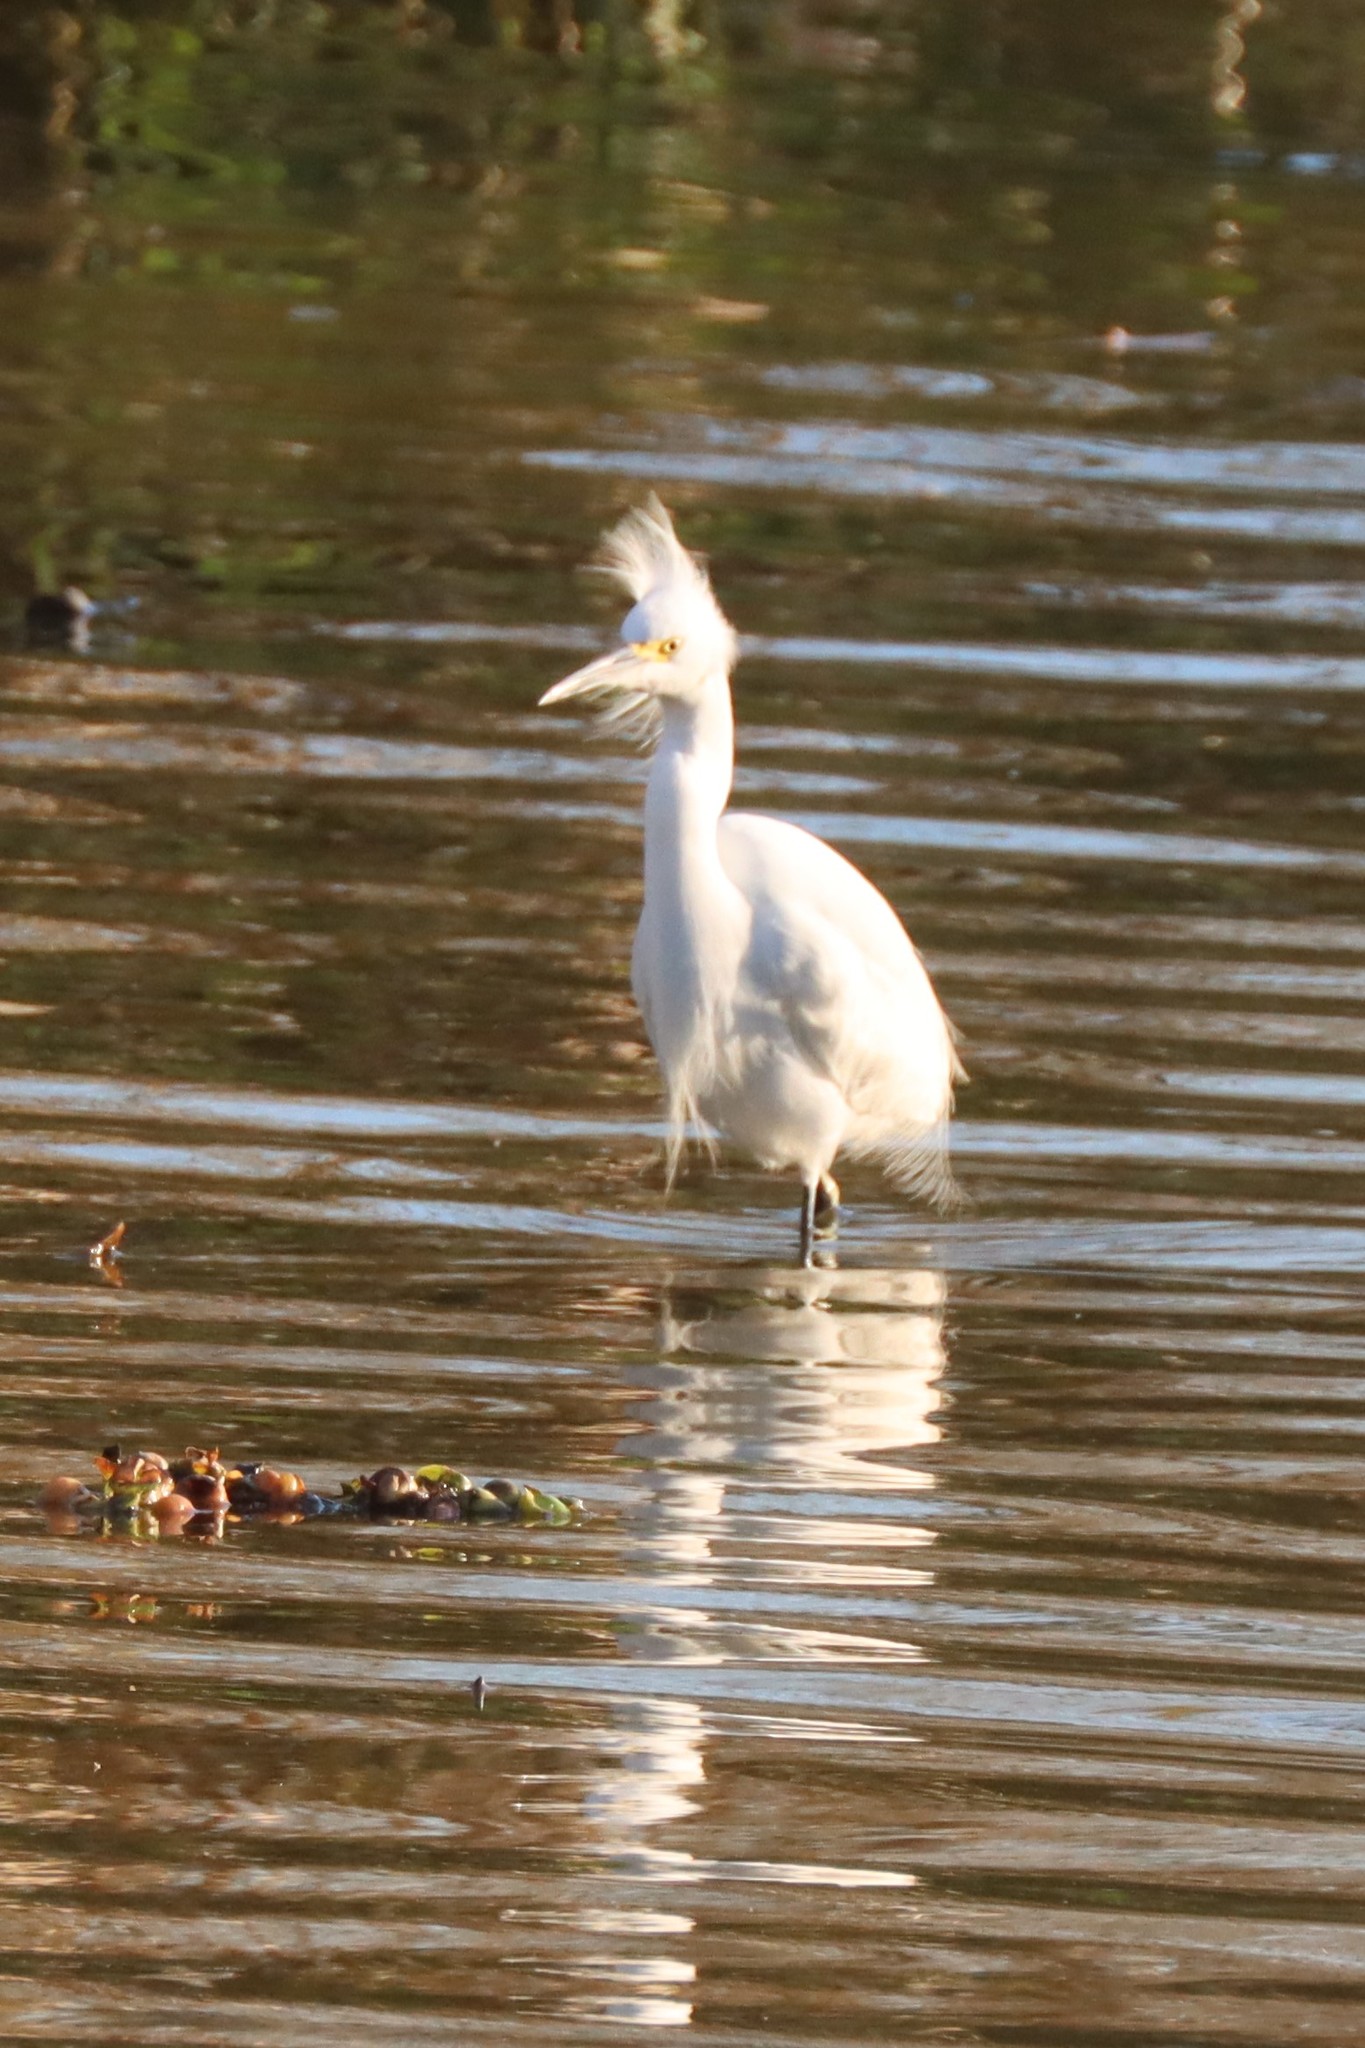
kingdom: Animalia
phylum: Chordata
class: Aves
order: Pelecaniformes
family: Ardeidae
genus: Egretta
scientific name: Egretta thula
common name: Snowy egret
